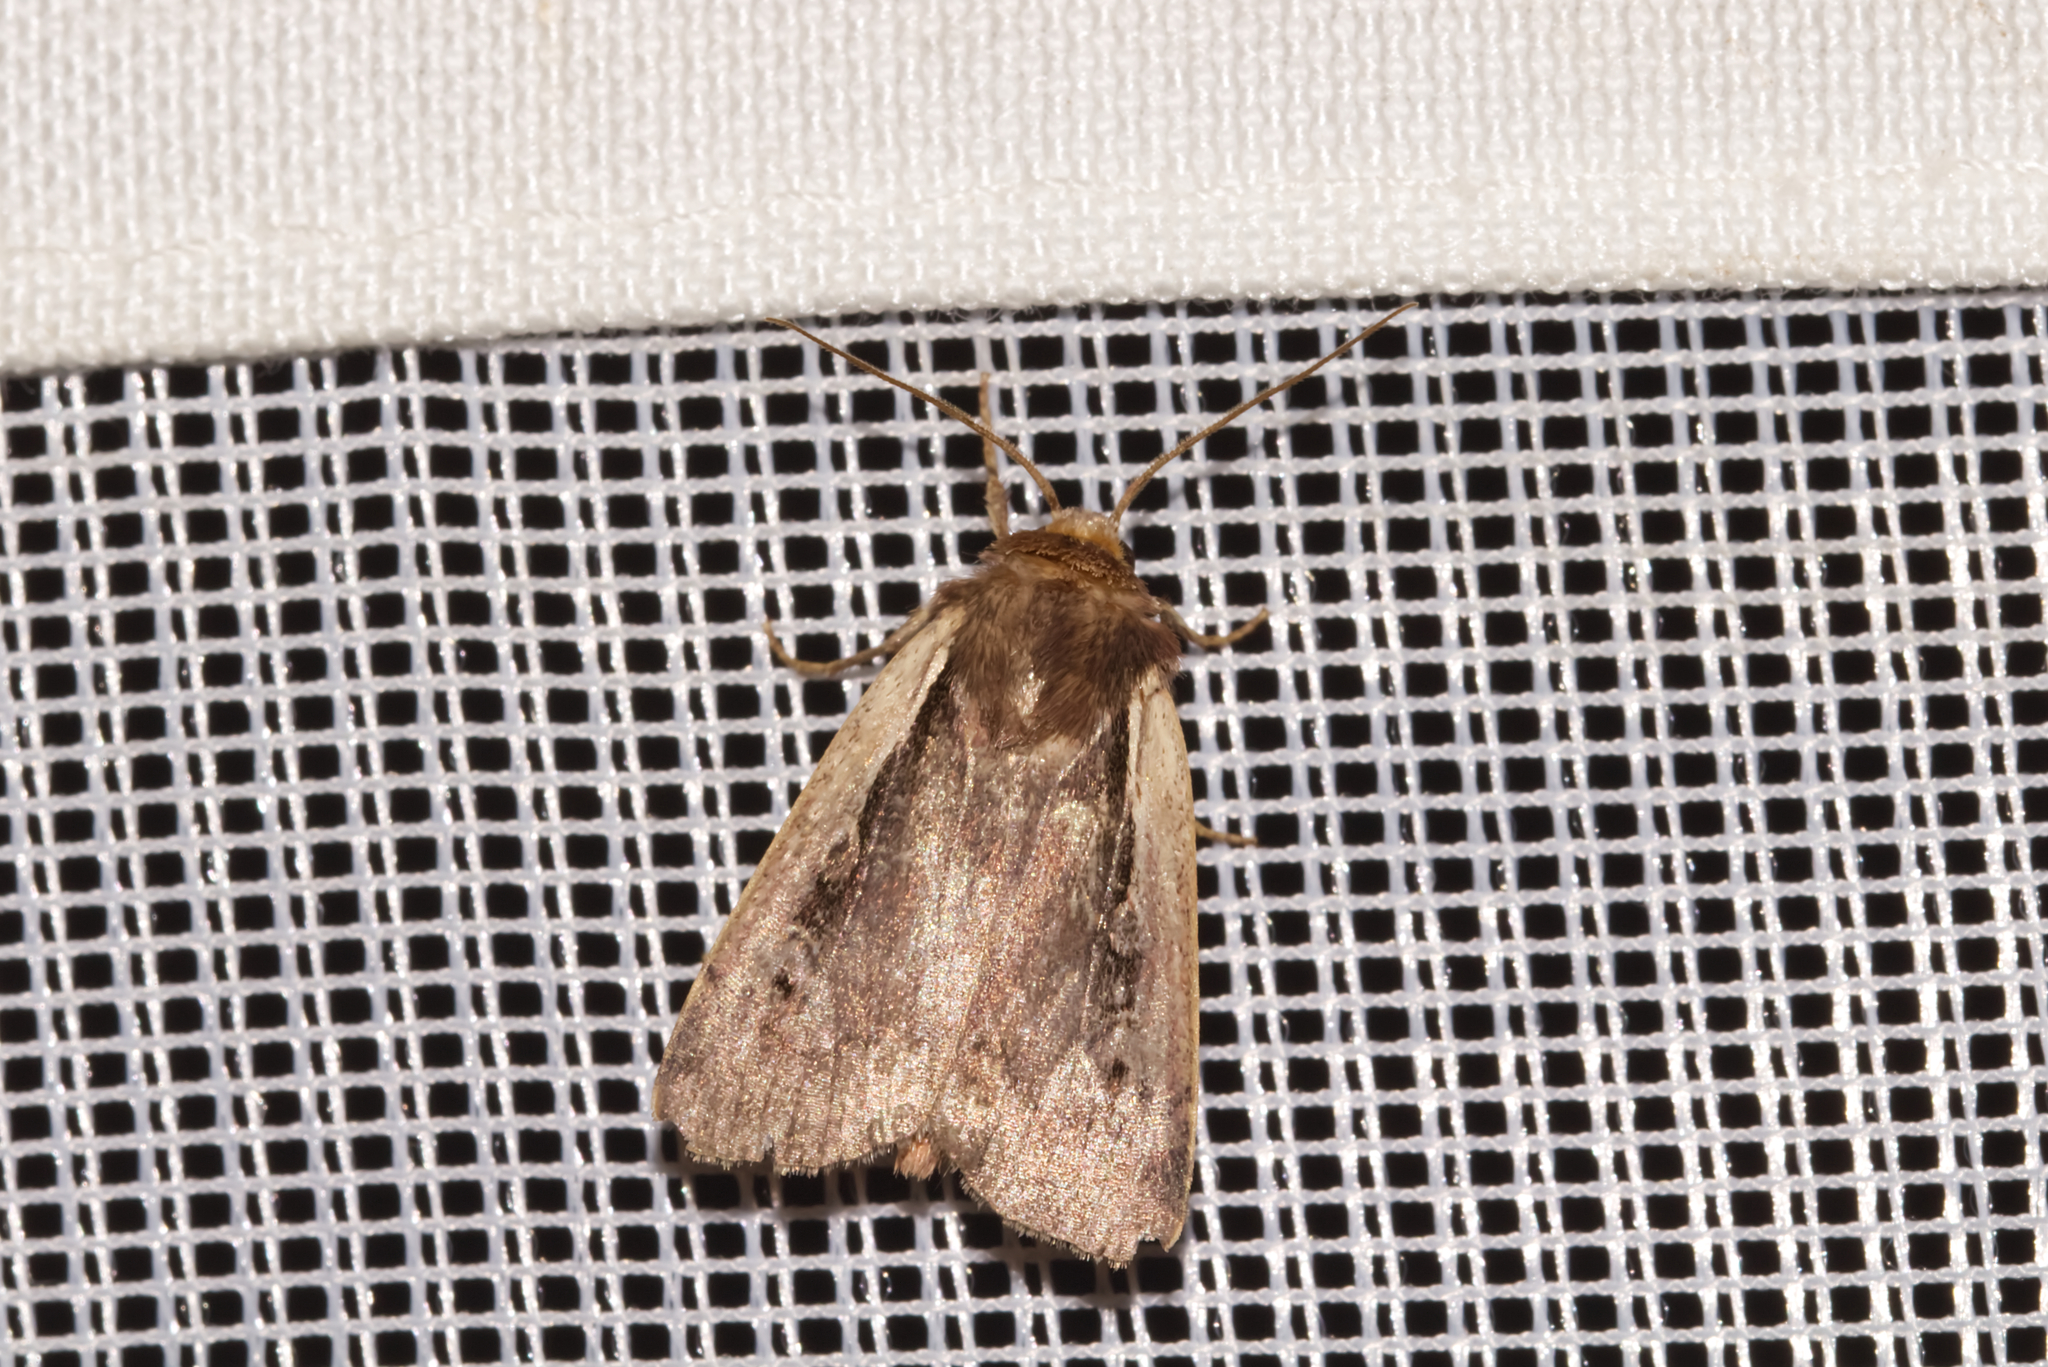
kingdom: Animalia
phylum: Arthropoda
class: Insecta
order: Lepidoptera
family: Noctuidae
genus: Ochropleura
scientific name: Ochropleura plecta
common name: Flame shoulder
